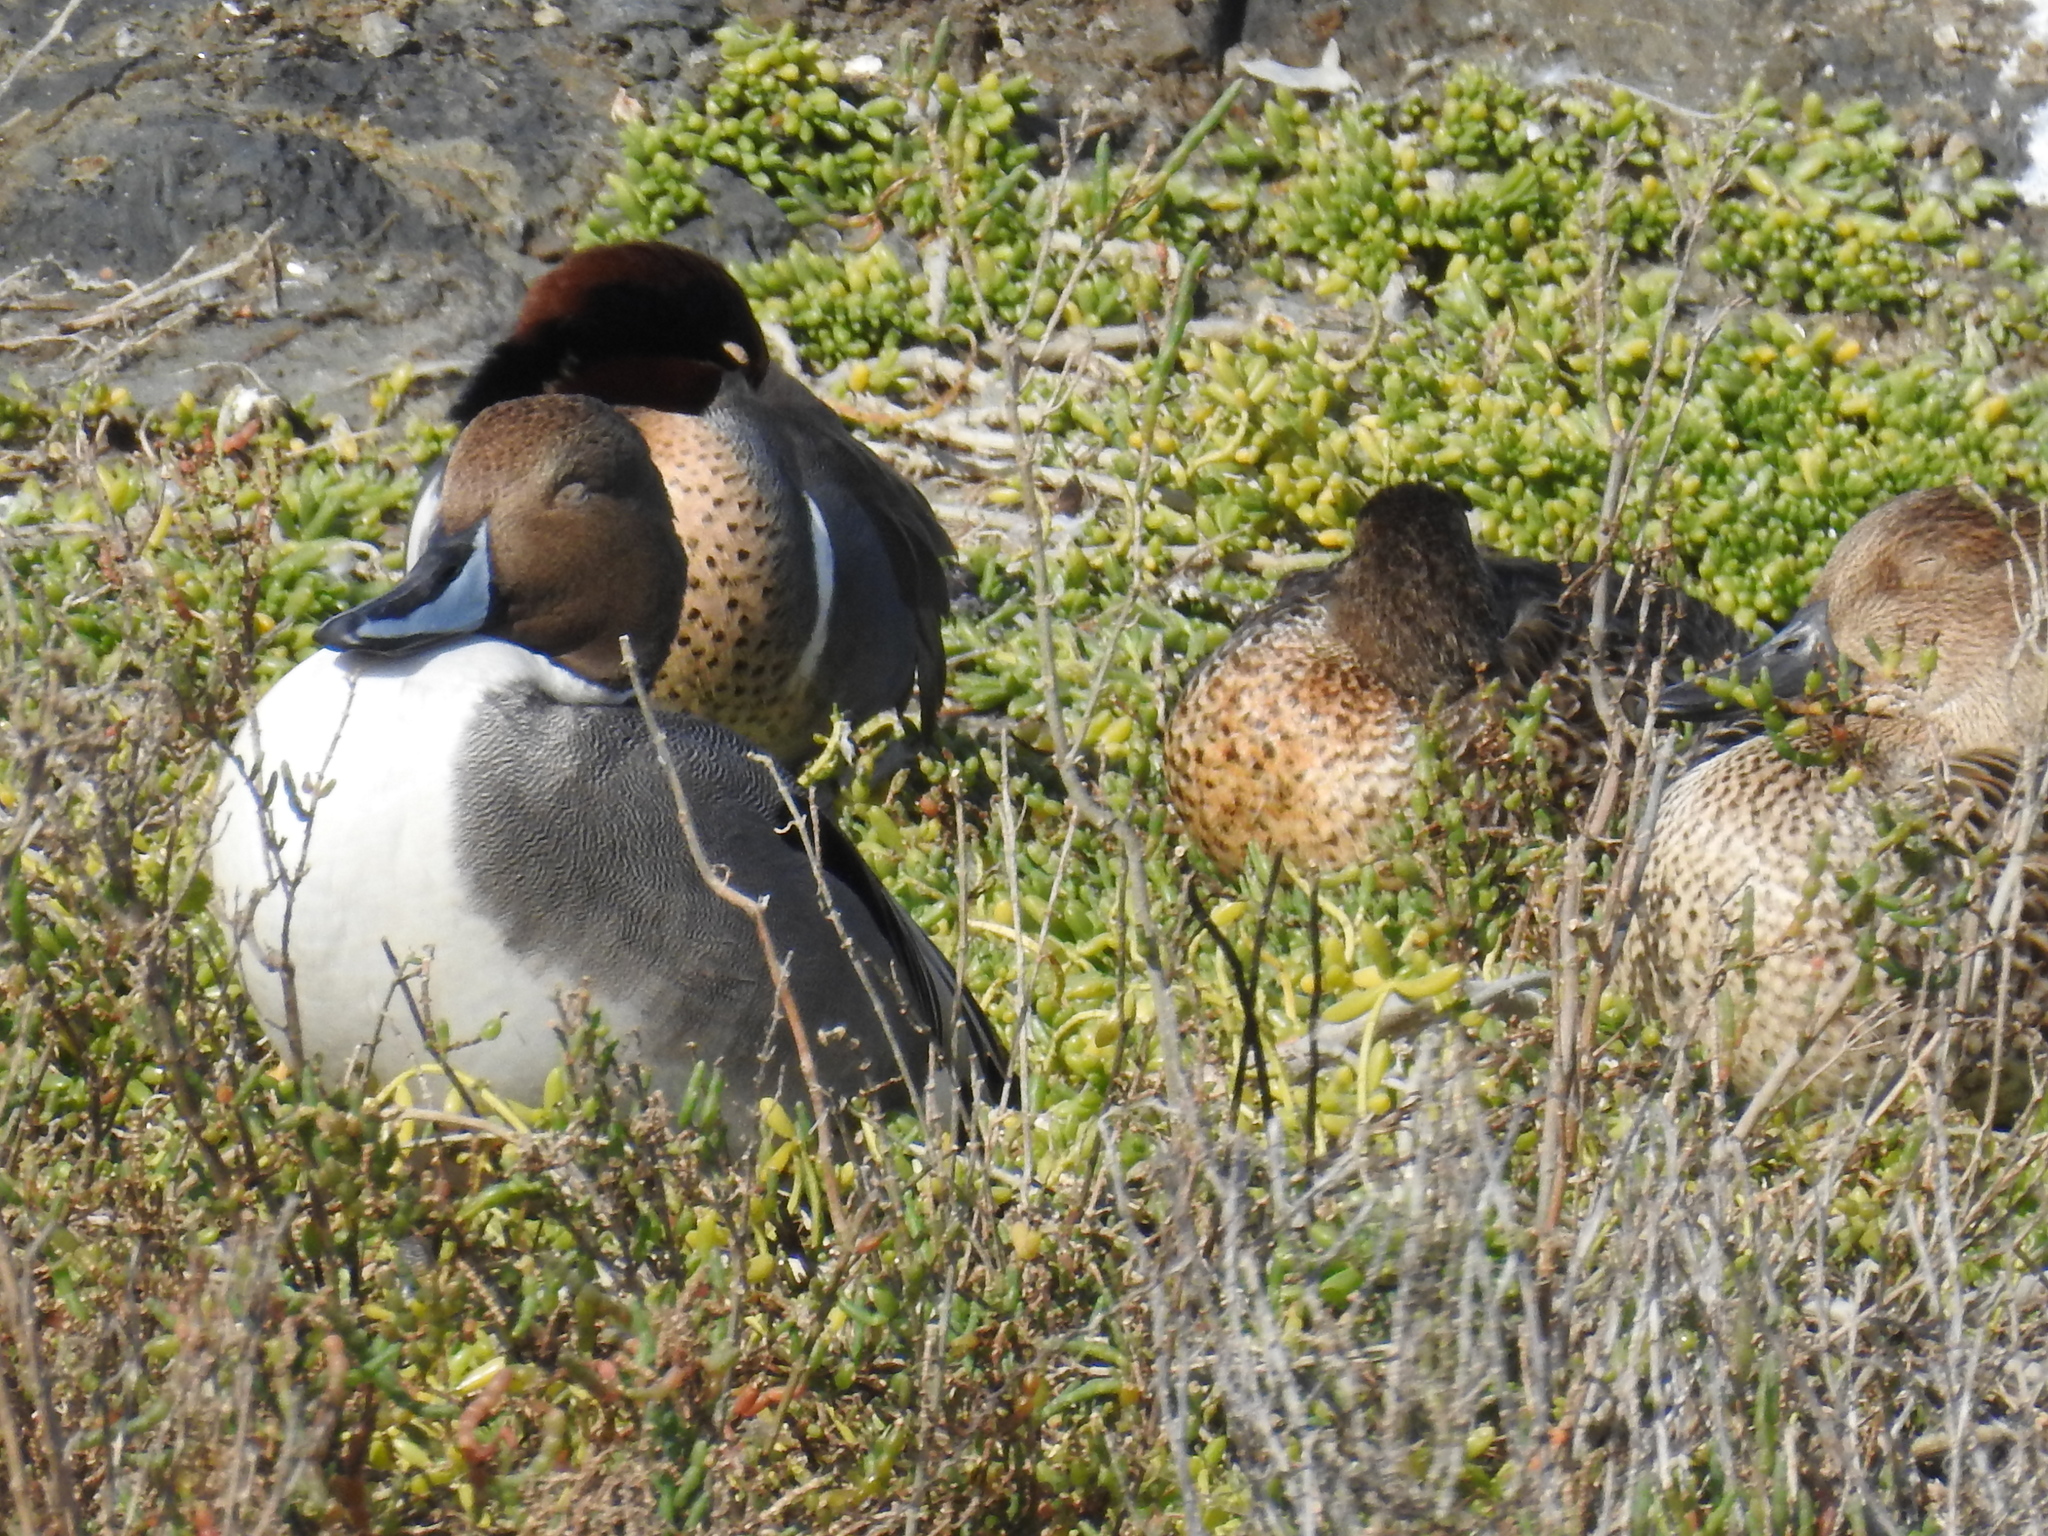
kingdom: Animalia
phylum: Chordata
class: Aves
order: Anseriformes
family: Anatidae
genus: Anas
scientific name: Anas acuta
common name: Northern pintail
